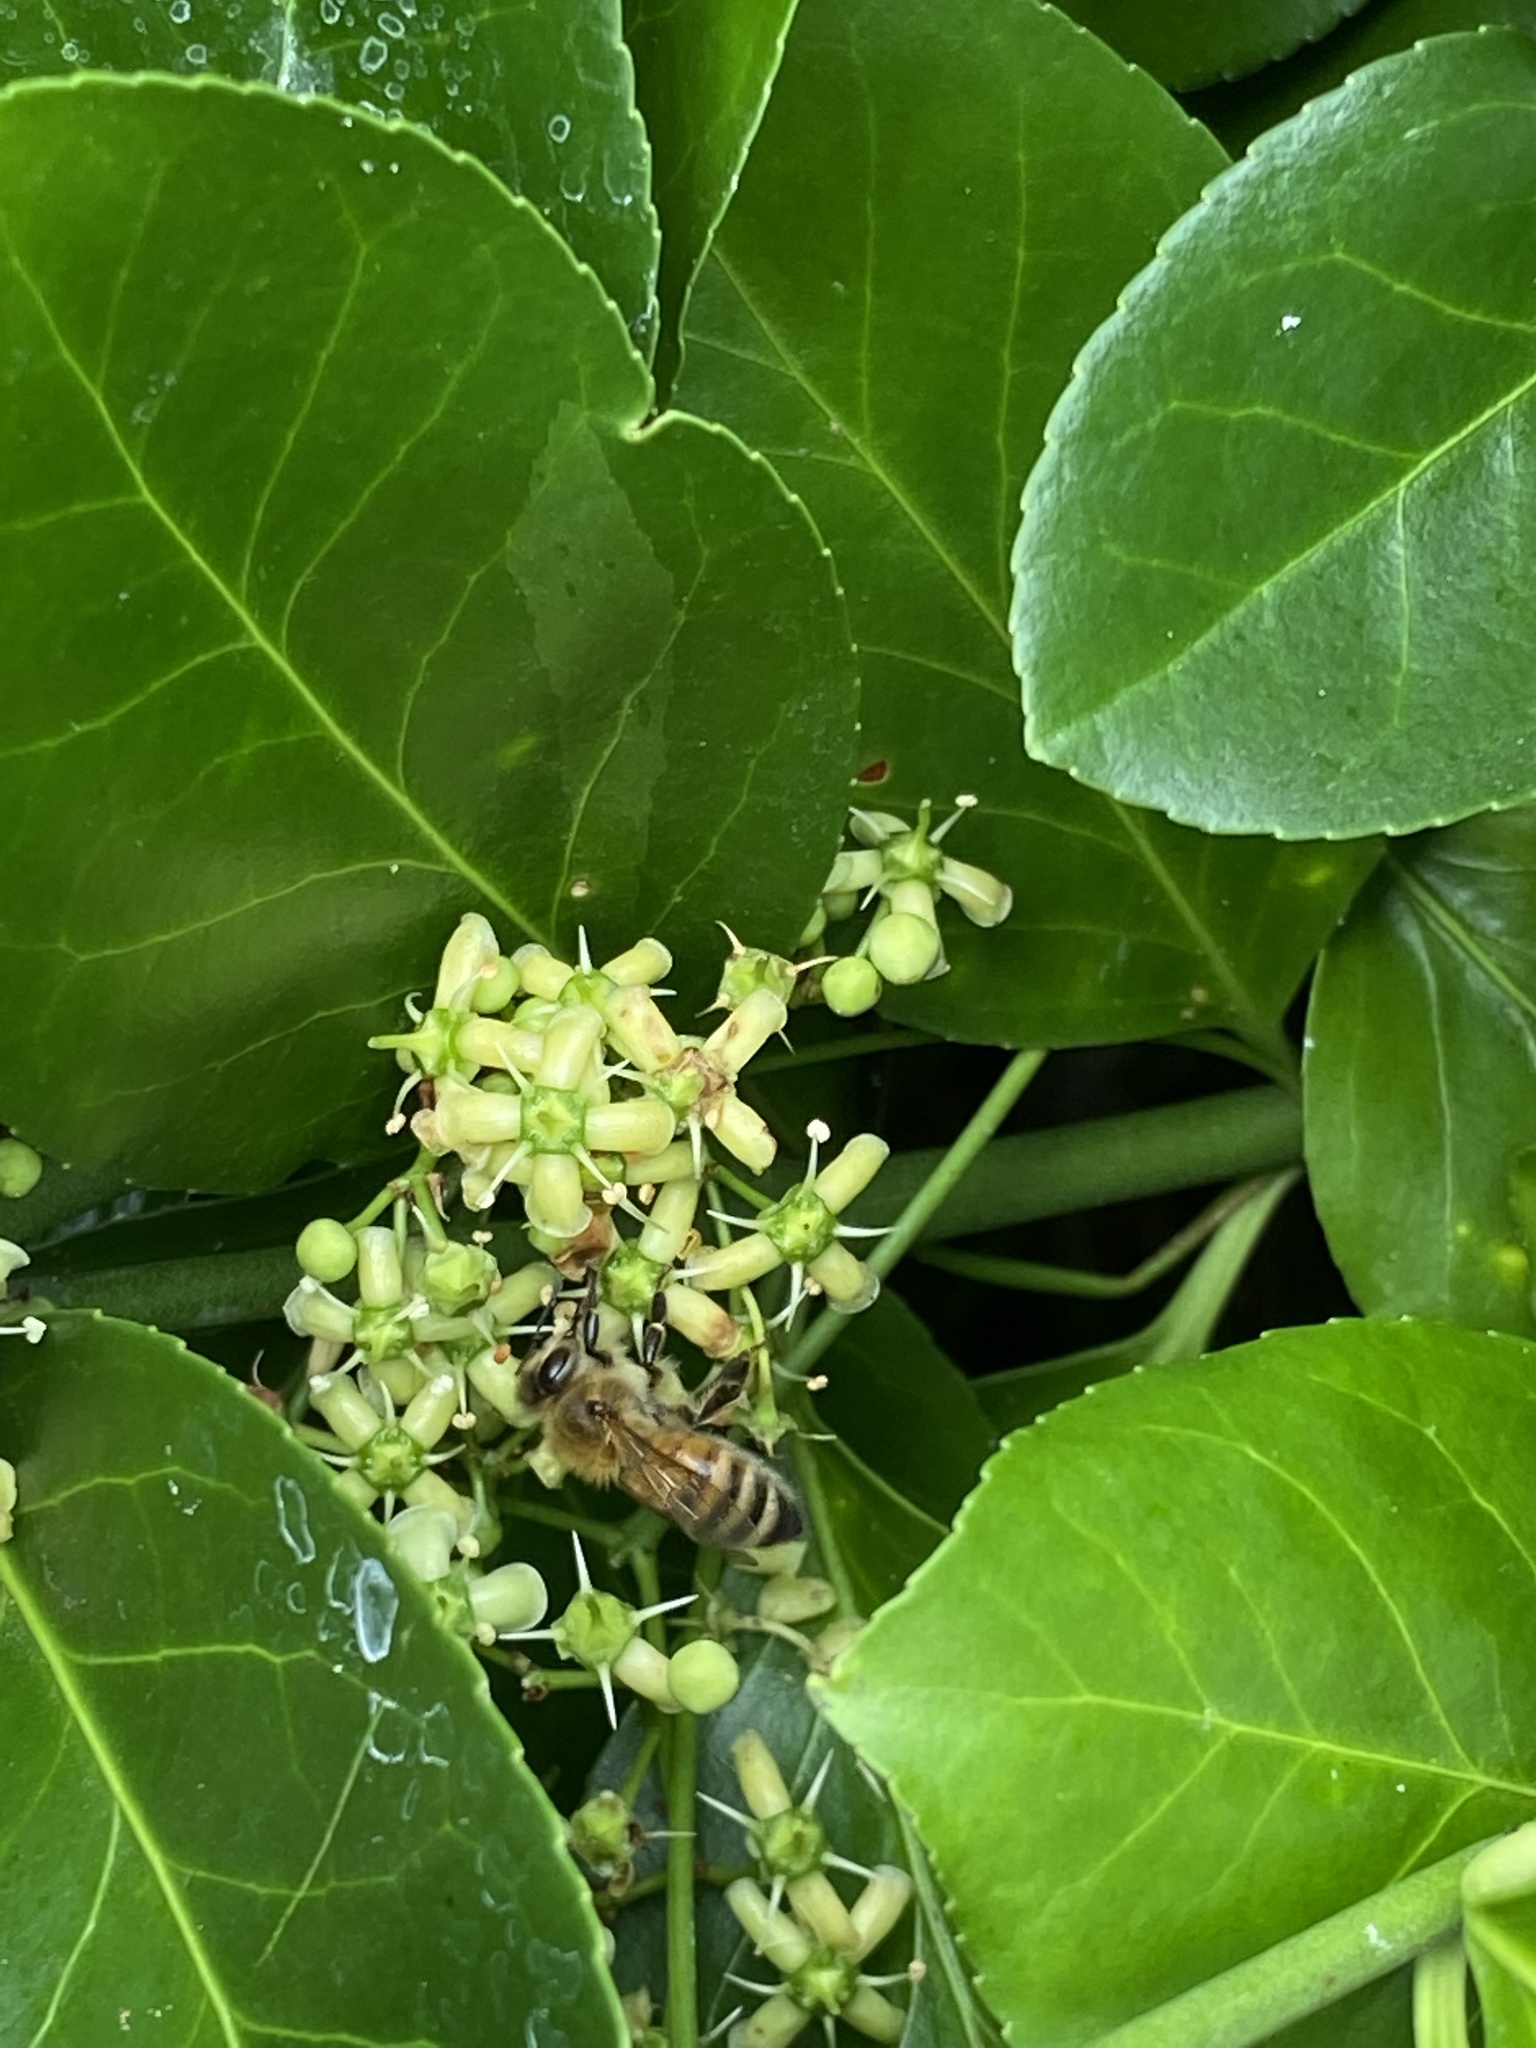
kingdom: Animalia
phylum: Arthropoda
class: Insecta
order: Hymenoptera
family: Apidae
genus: Apis
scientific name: Apis mellifera
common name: Honey bee
